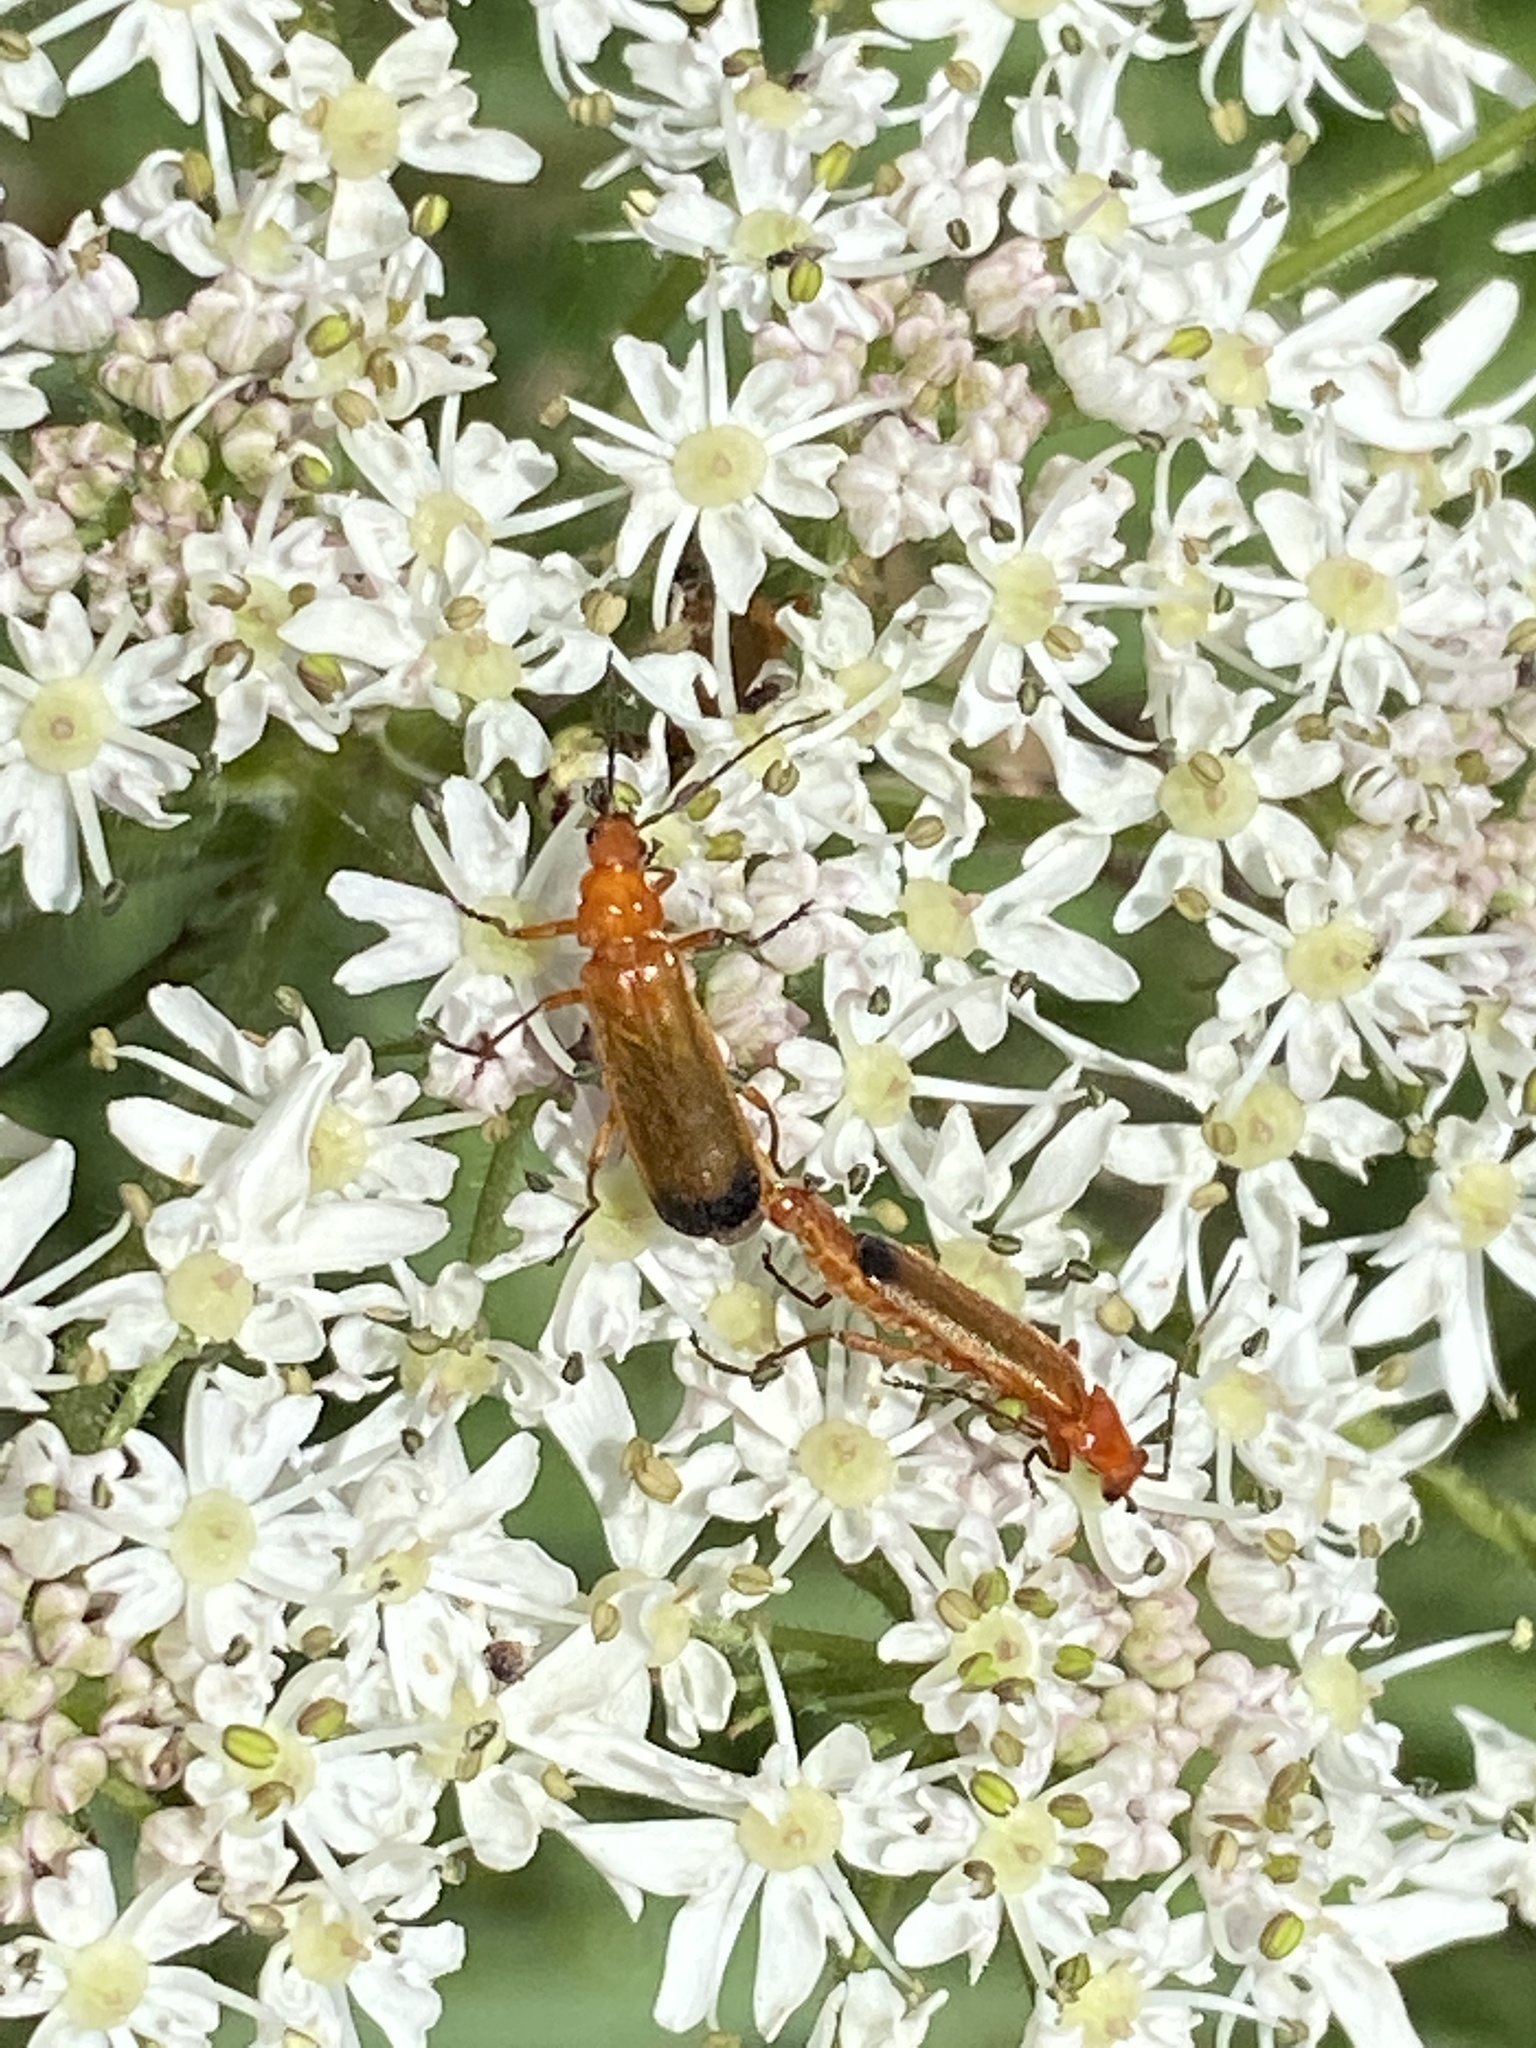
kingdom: Animalia
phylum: Arthropoda
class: Insecta
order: Coleoptera
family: Cantharidae
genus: Rhagonycha
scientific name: Rhagonycha fulva
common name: Common red soldier beetle
